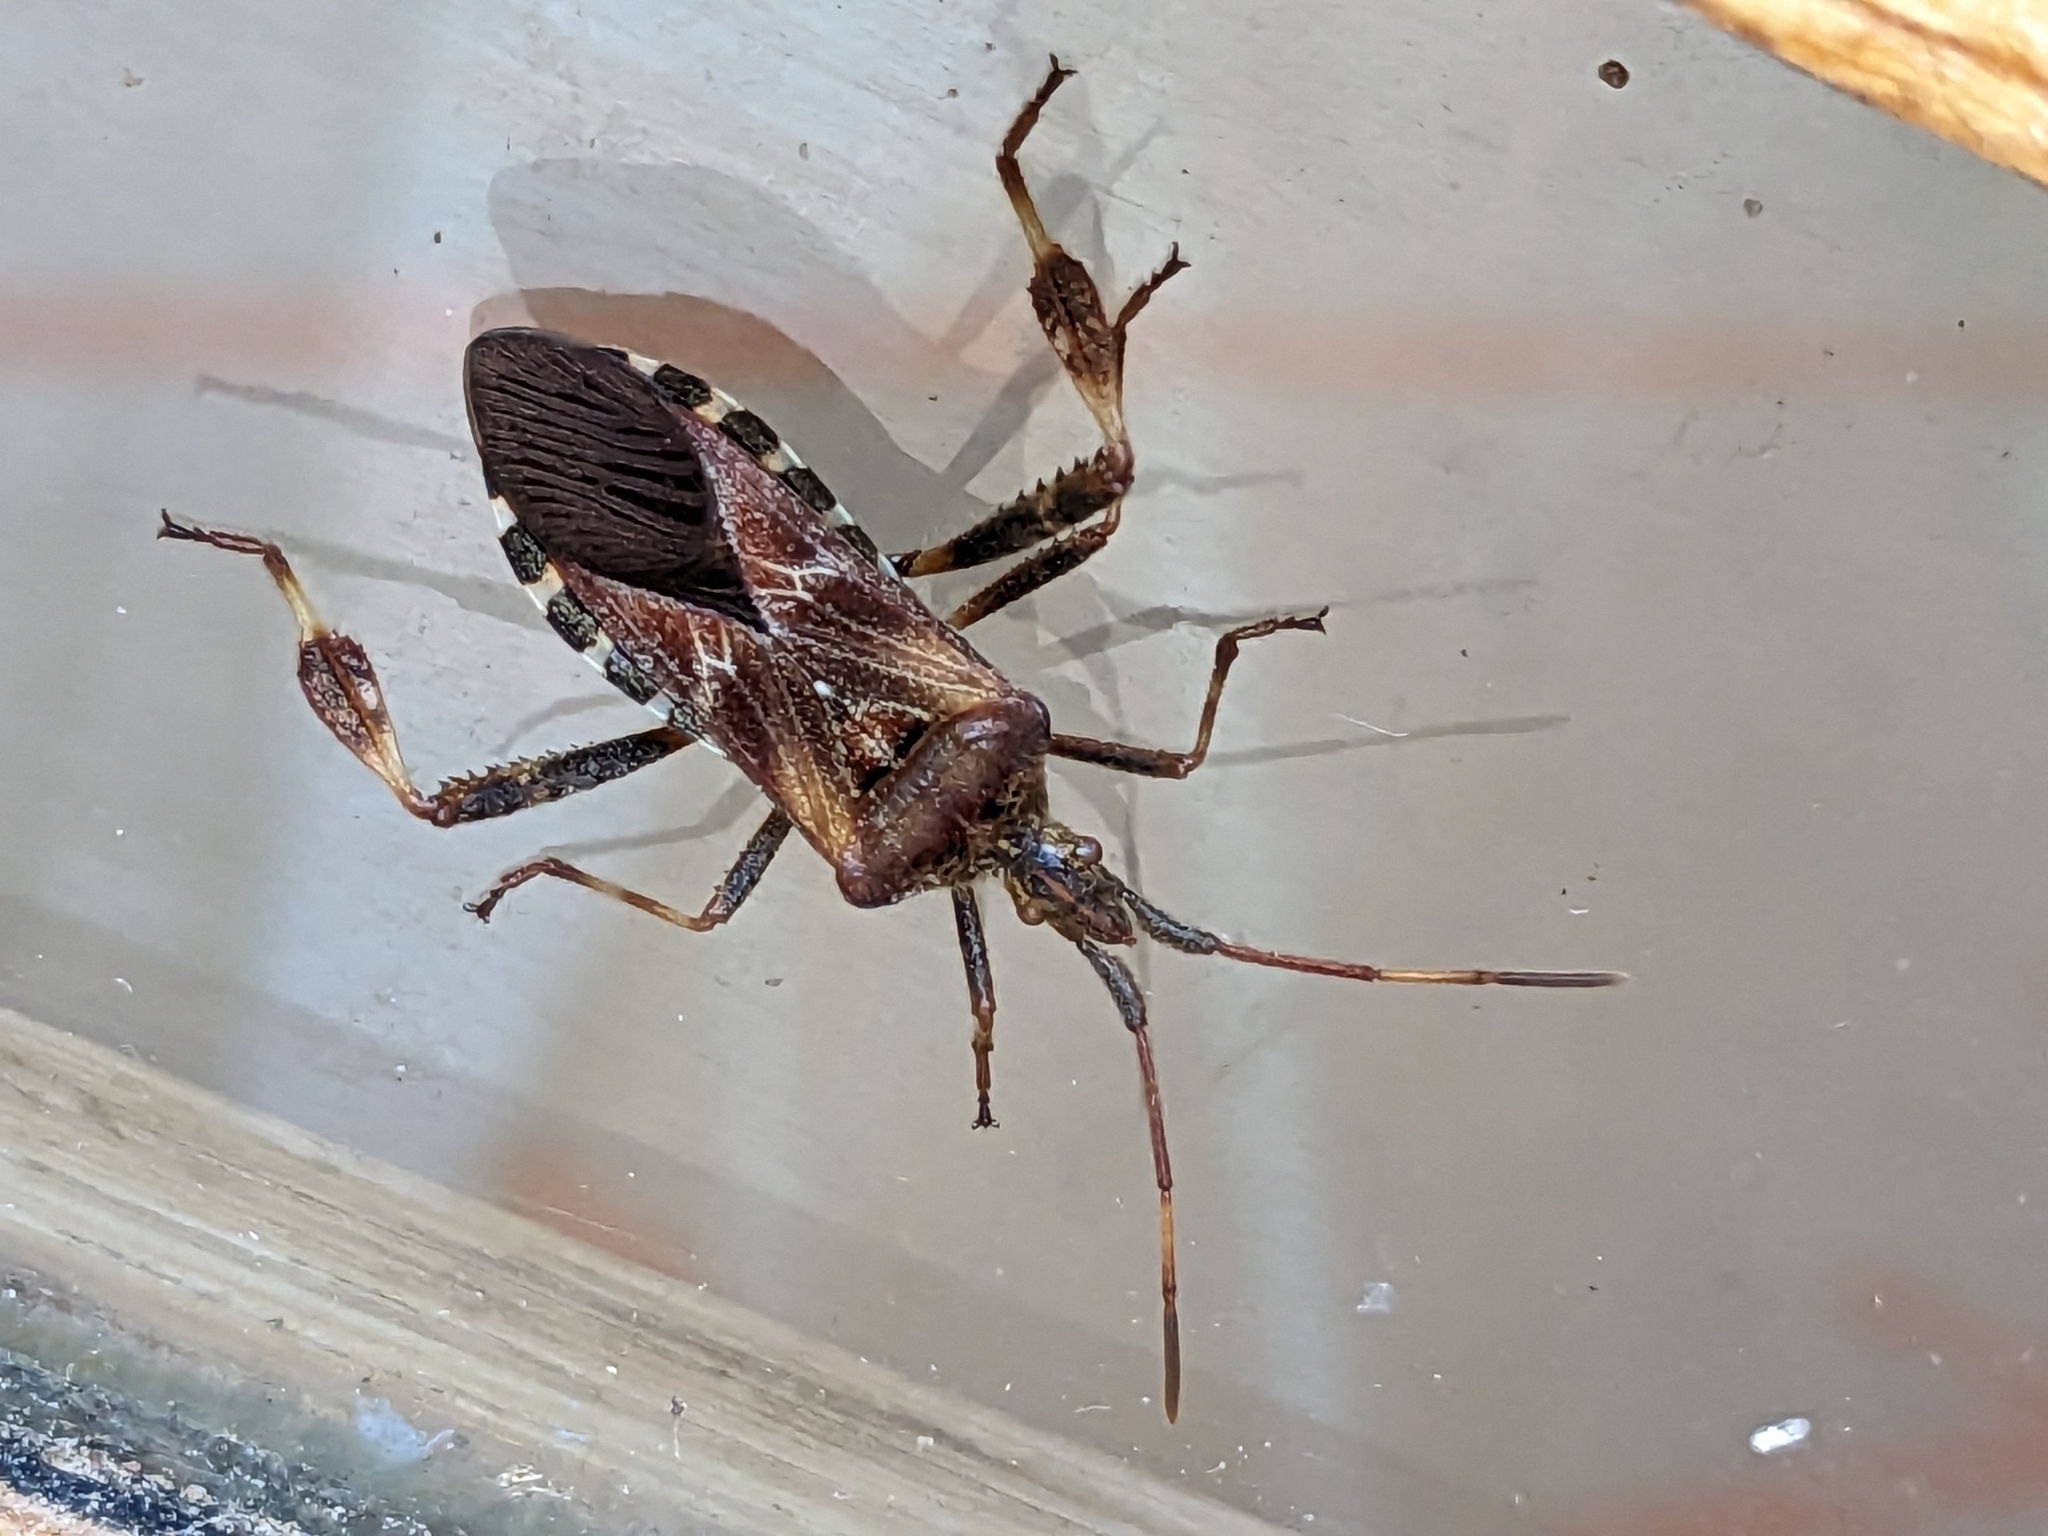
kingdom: Animalia
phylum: Arthropoda
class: Insecta
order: Hemiptera
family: Coreidae
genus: Leptoglossus
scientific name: Leptoglossus occidentalis
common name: Western conifer-seed bug
